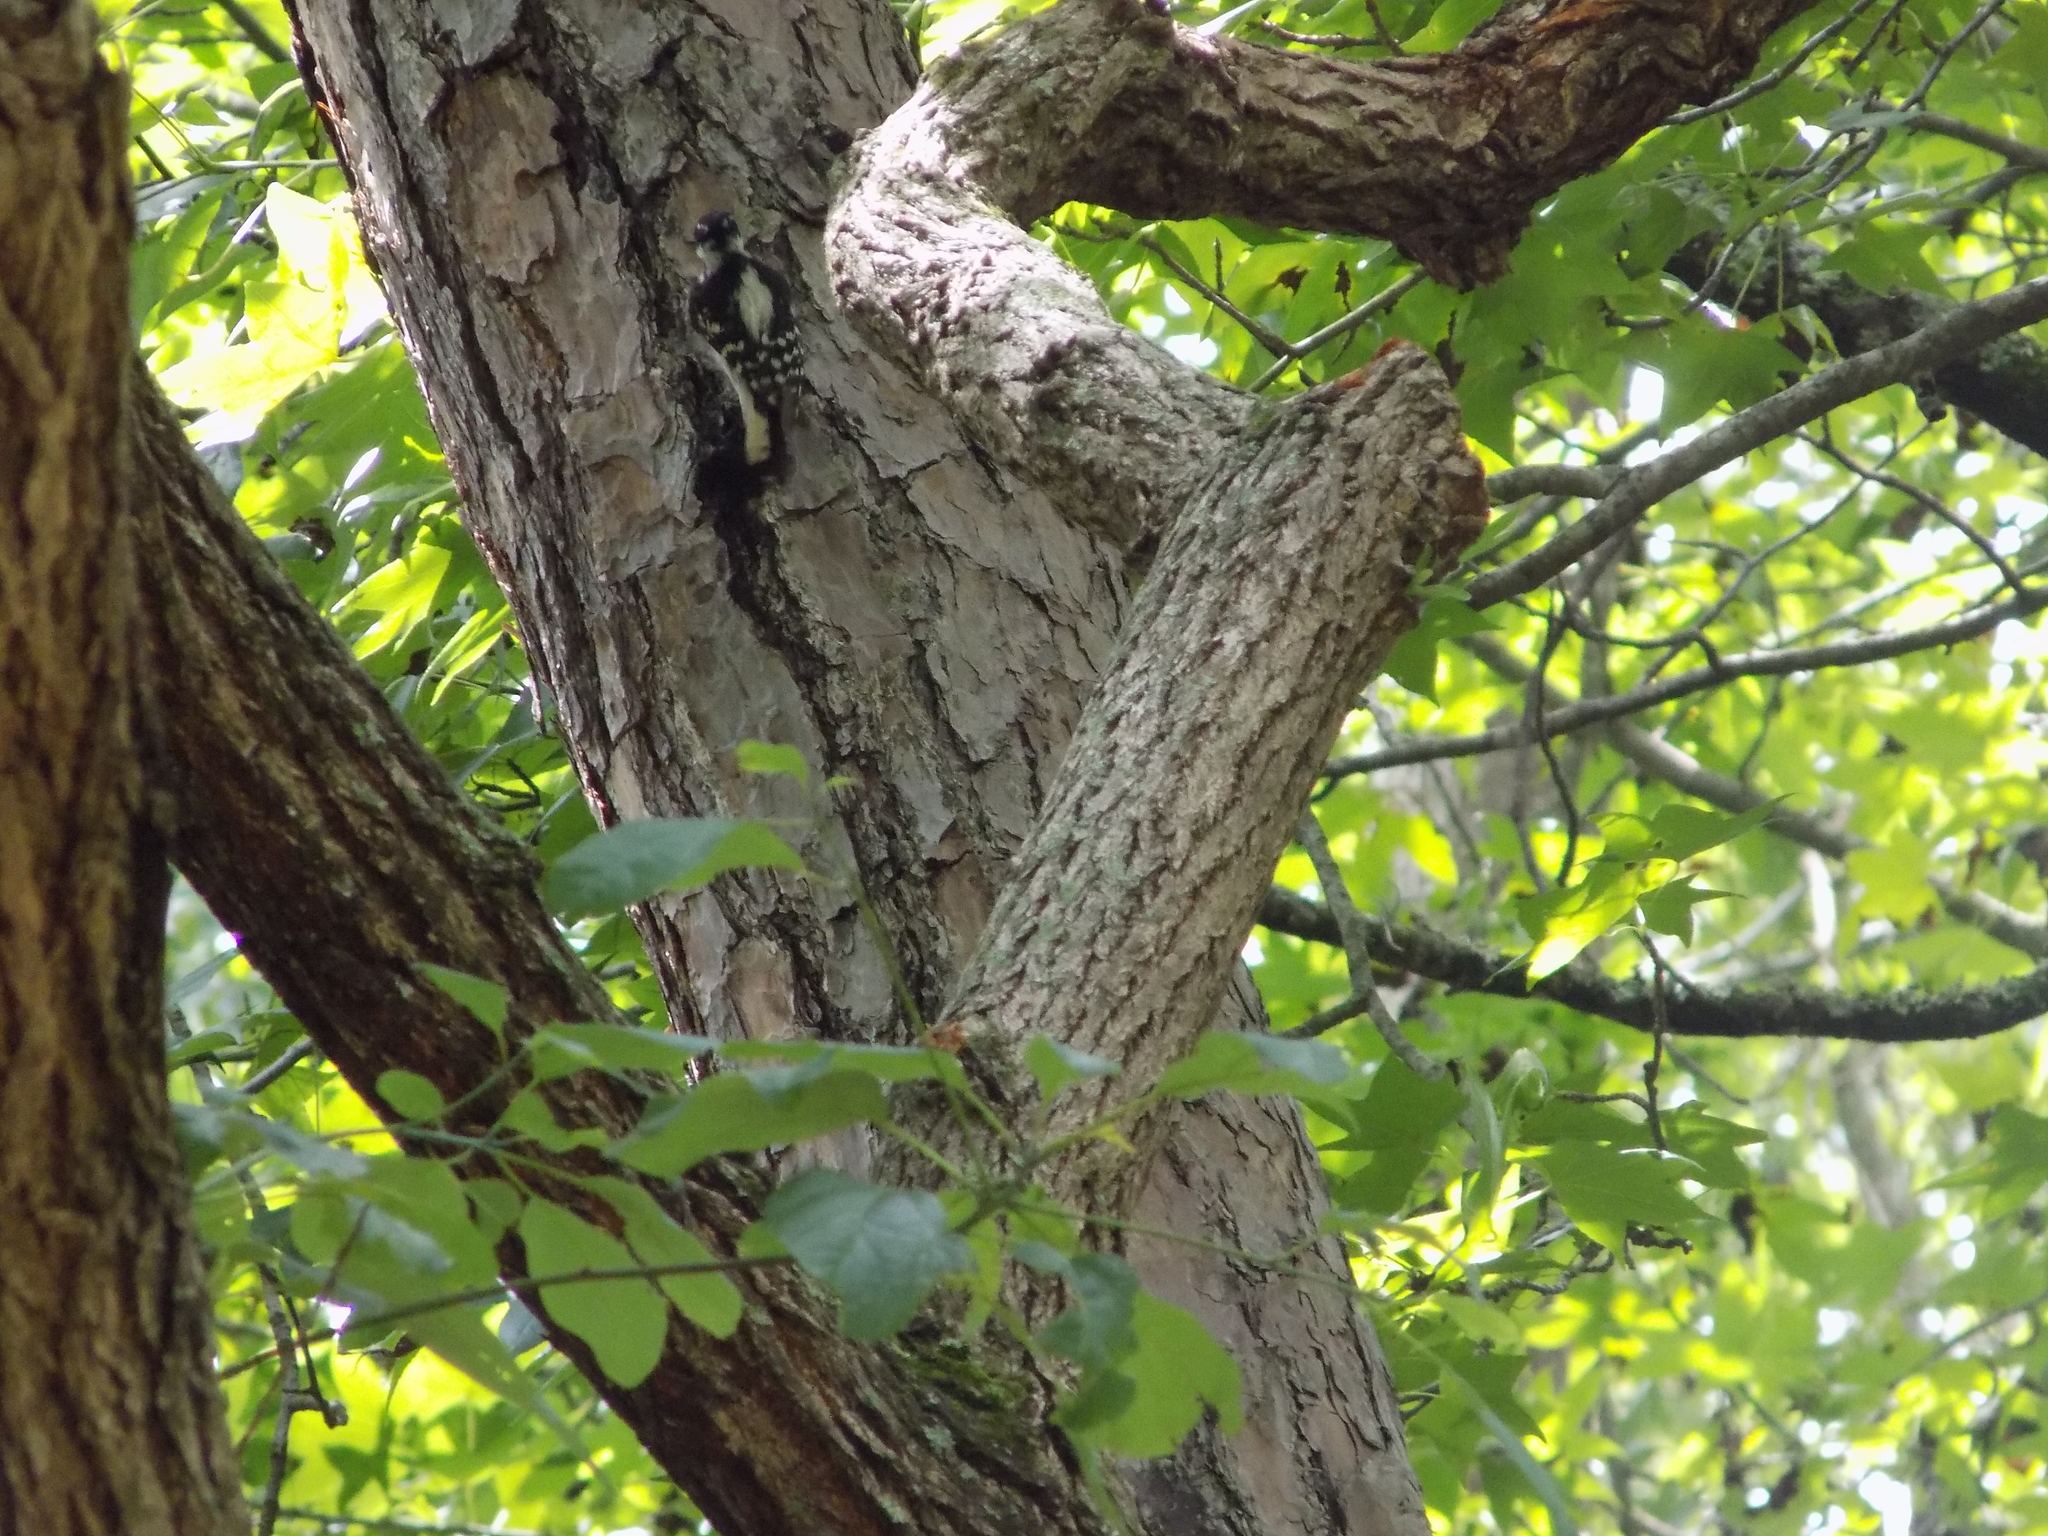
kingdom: Animalia
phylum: Chordata
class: Aves
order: Piciformes
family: Picidae
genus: Dryobates
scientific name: Dryobates pubescens
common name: Downy woodpecker
